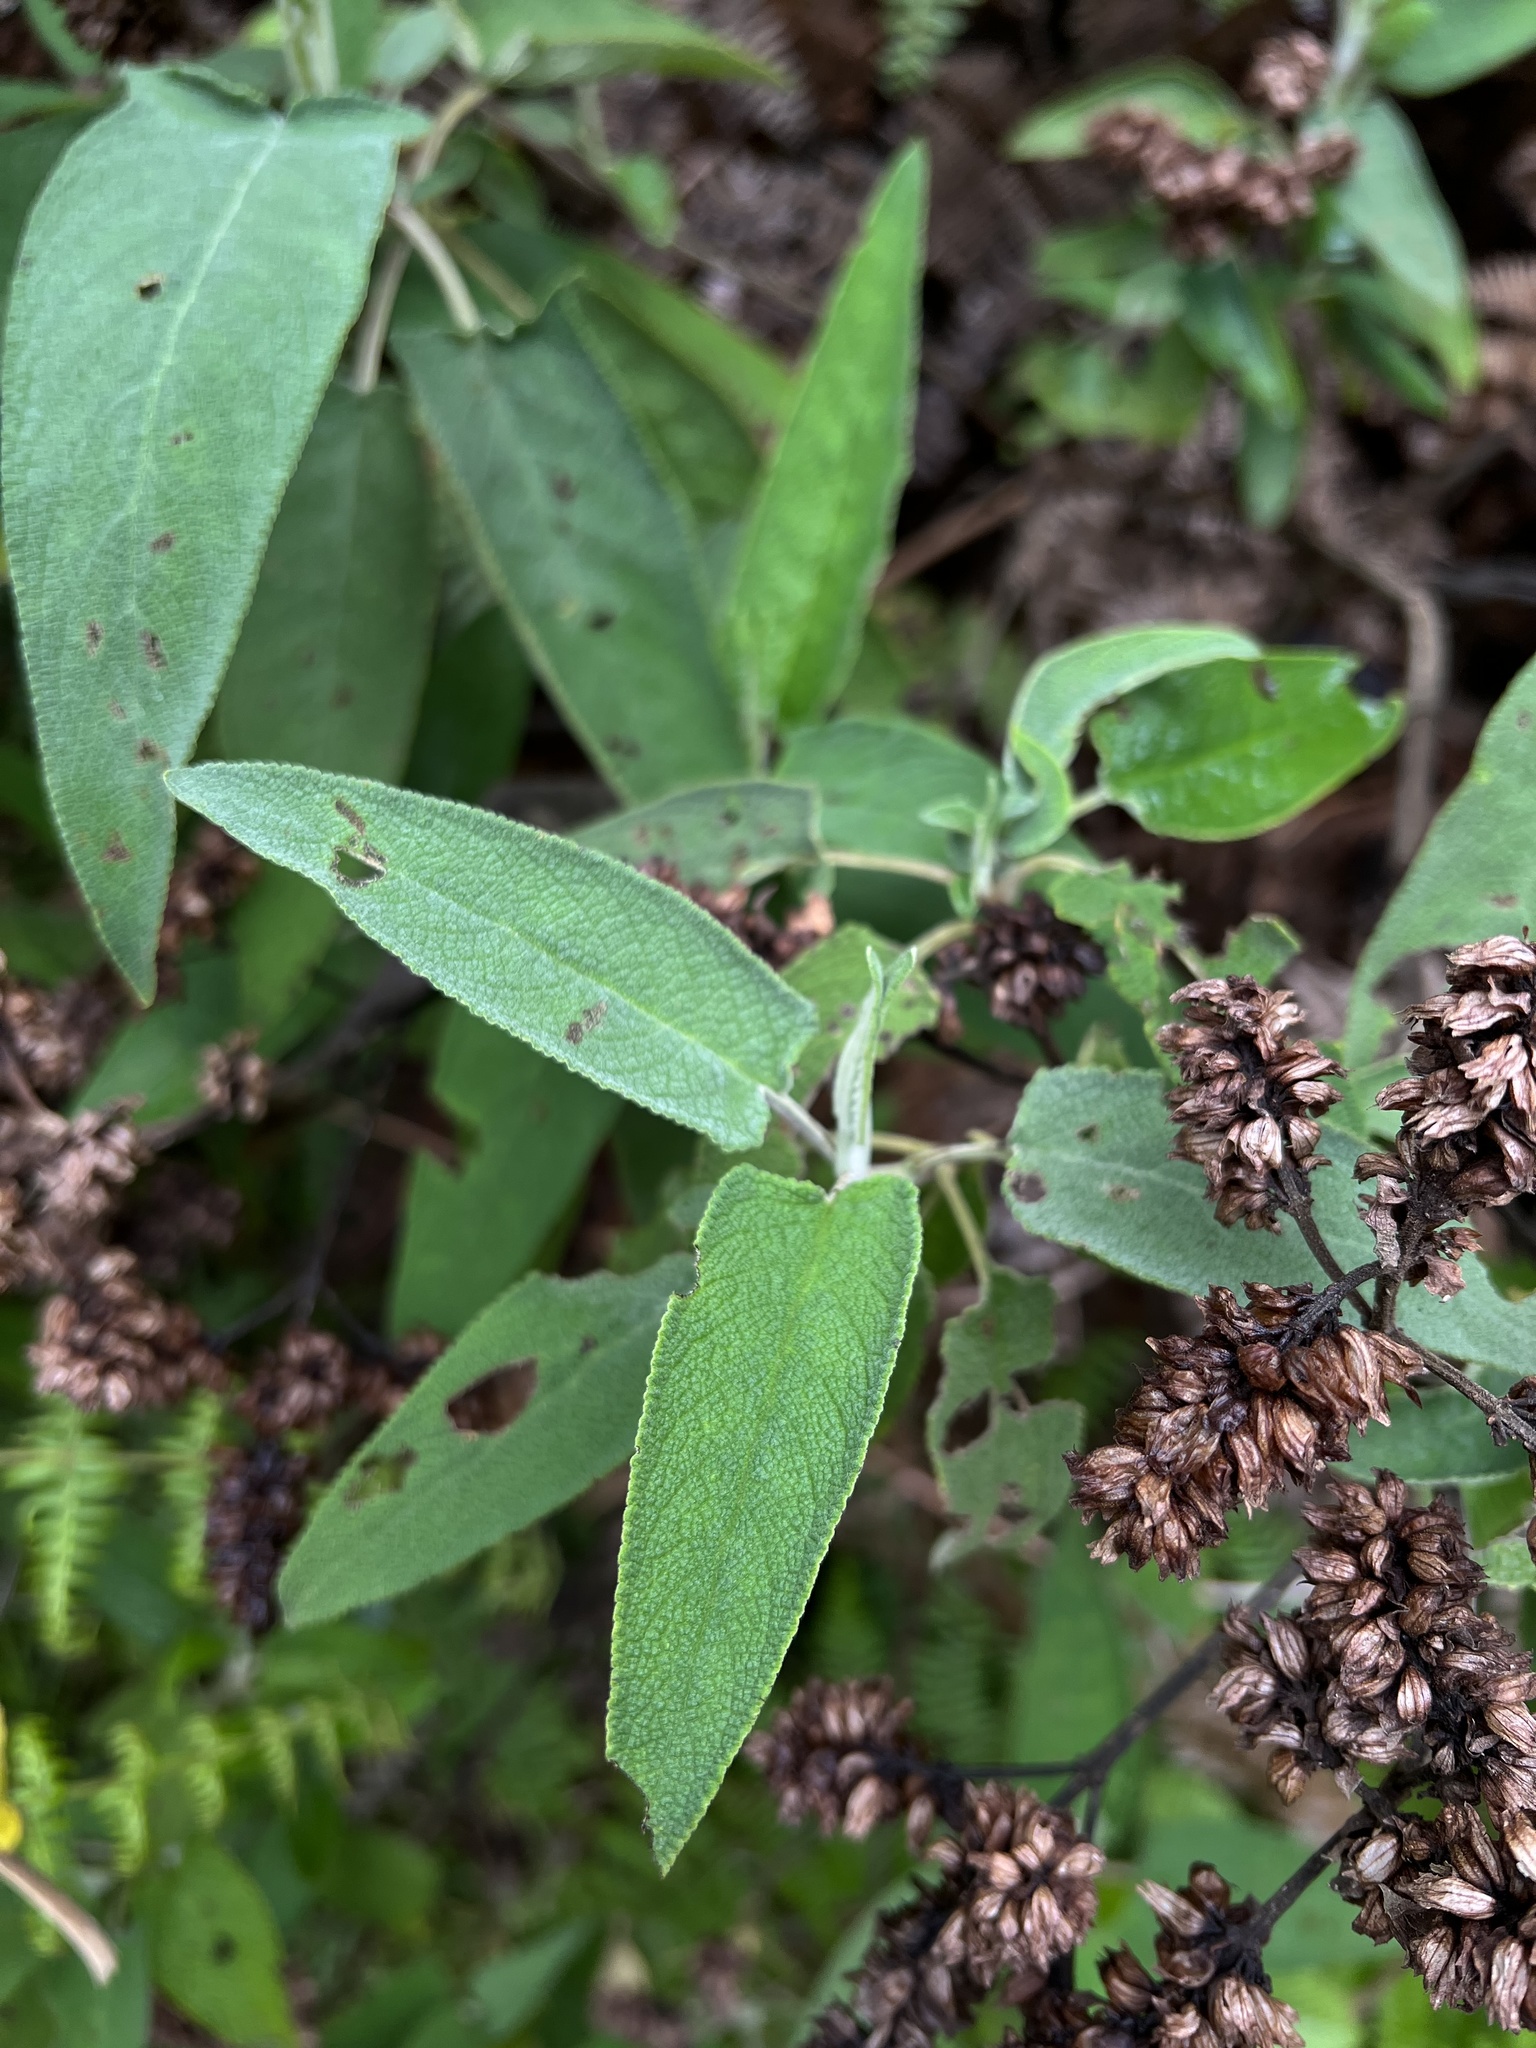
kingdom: Plantae
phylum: Tracheophyta
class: Magnoliopsida
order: Lamiales
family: Lamiaceae
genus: Lepechinia
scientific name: Lepechinia salviifolia
